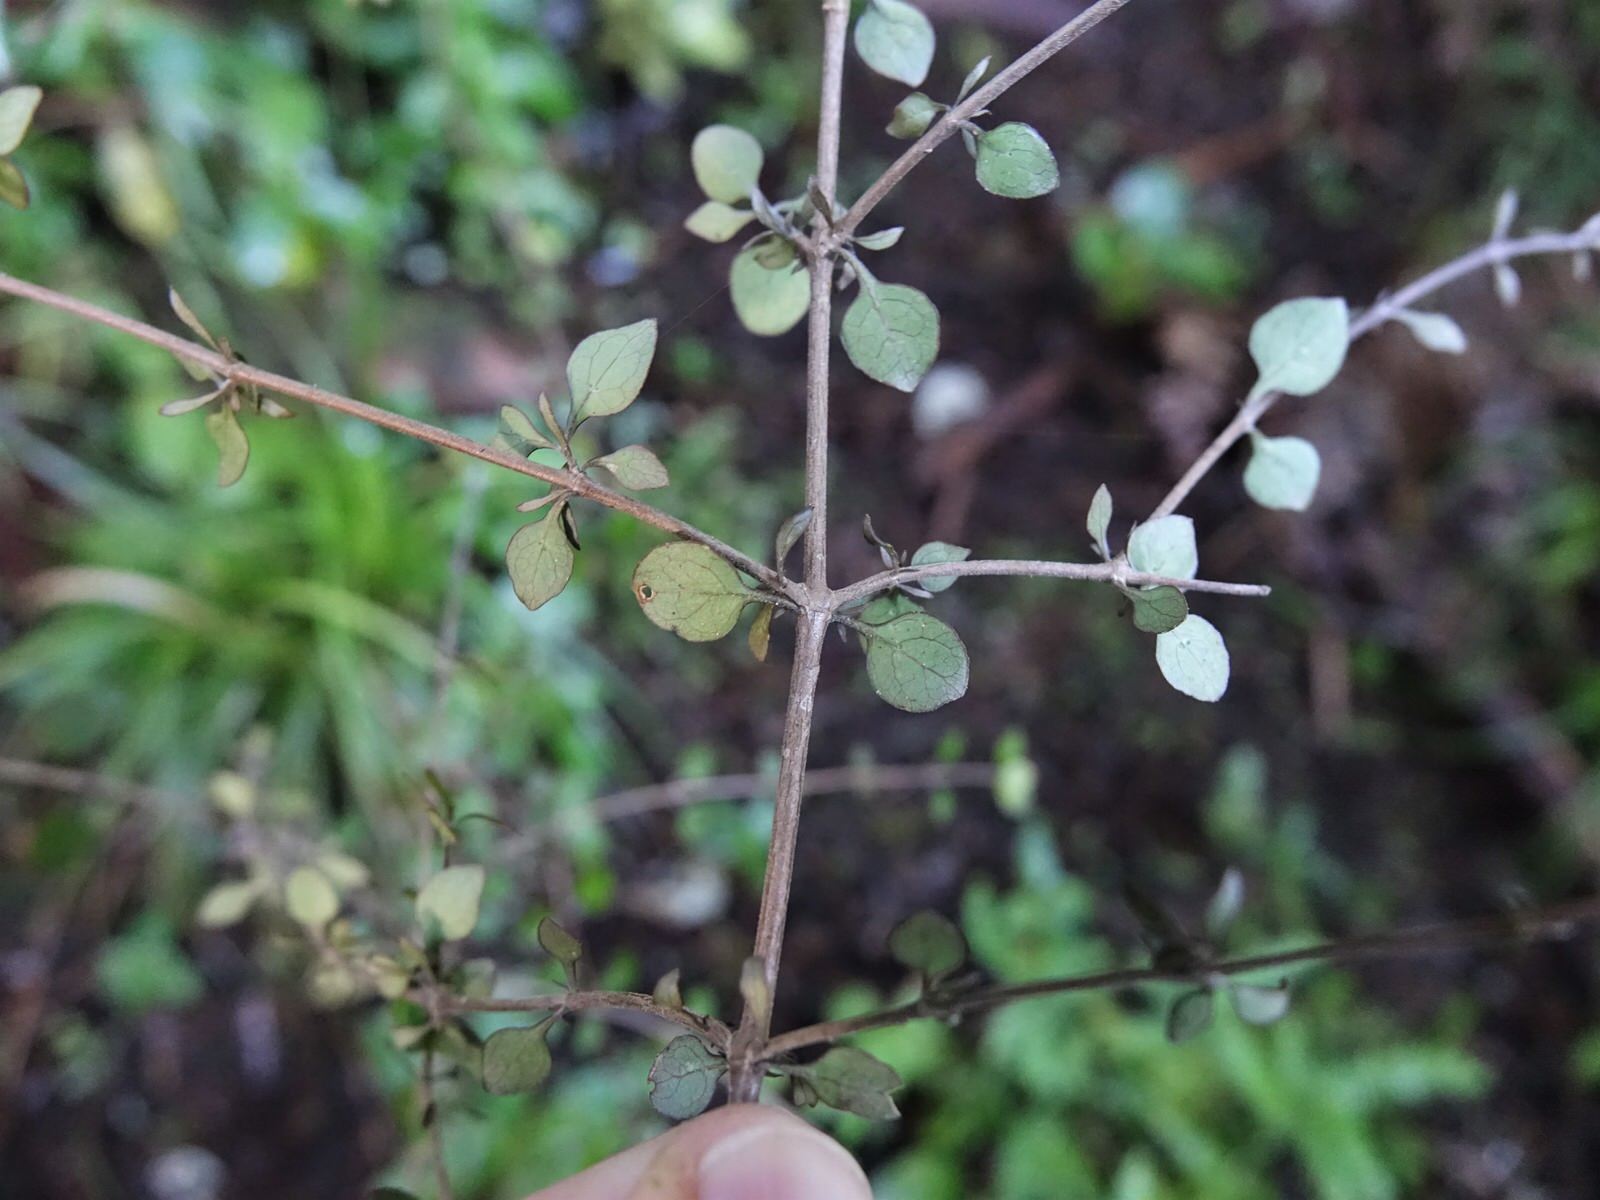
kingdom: Plantae
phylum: Tracheophyta
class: Magnoliopsida
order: Gentianales
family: Rubiaceae
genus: Coprosma
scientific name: Coprosma rhamnoides
